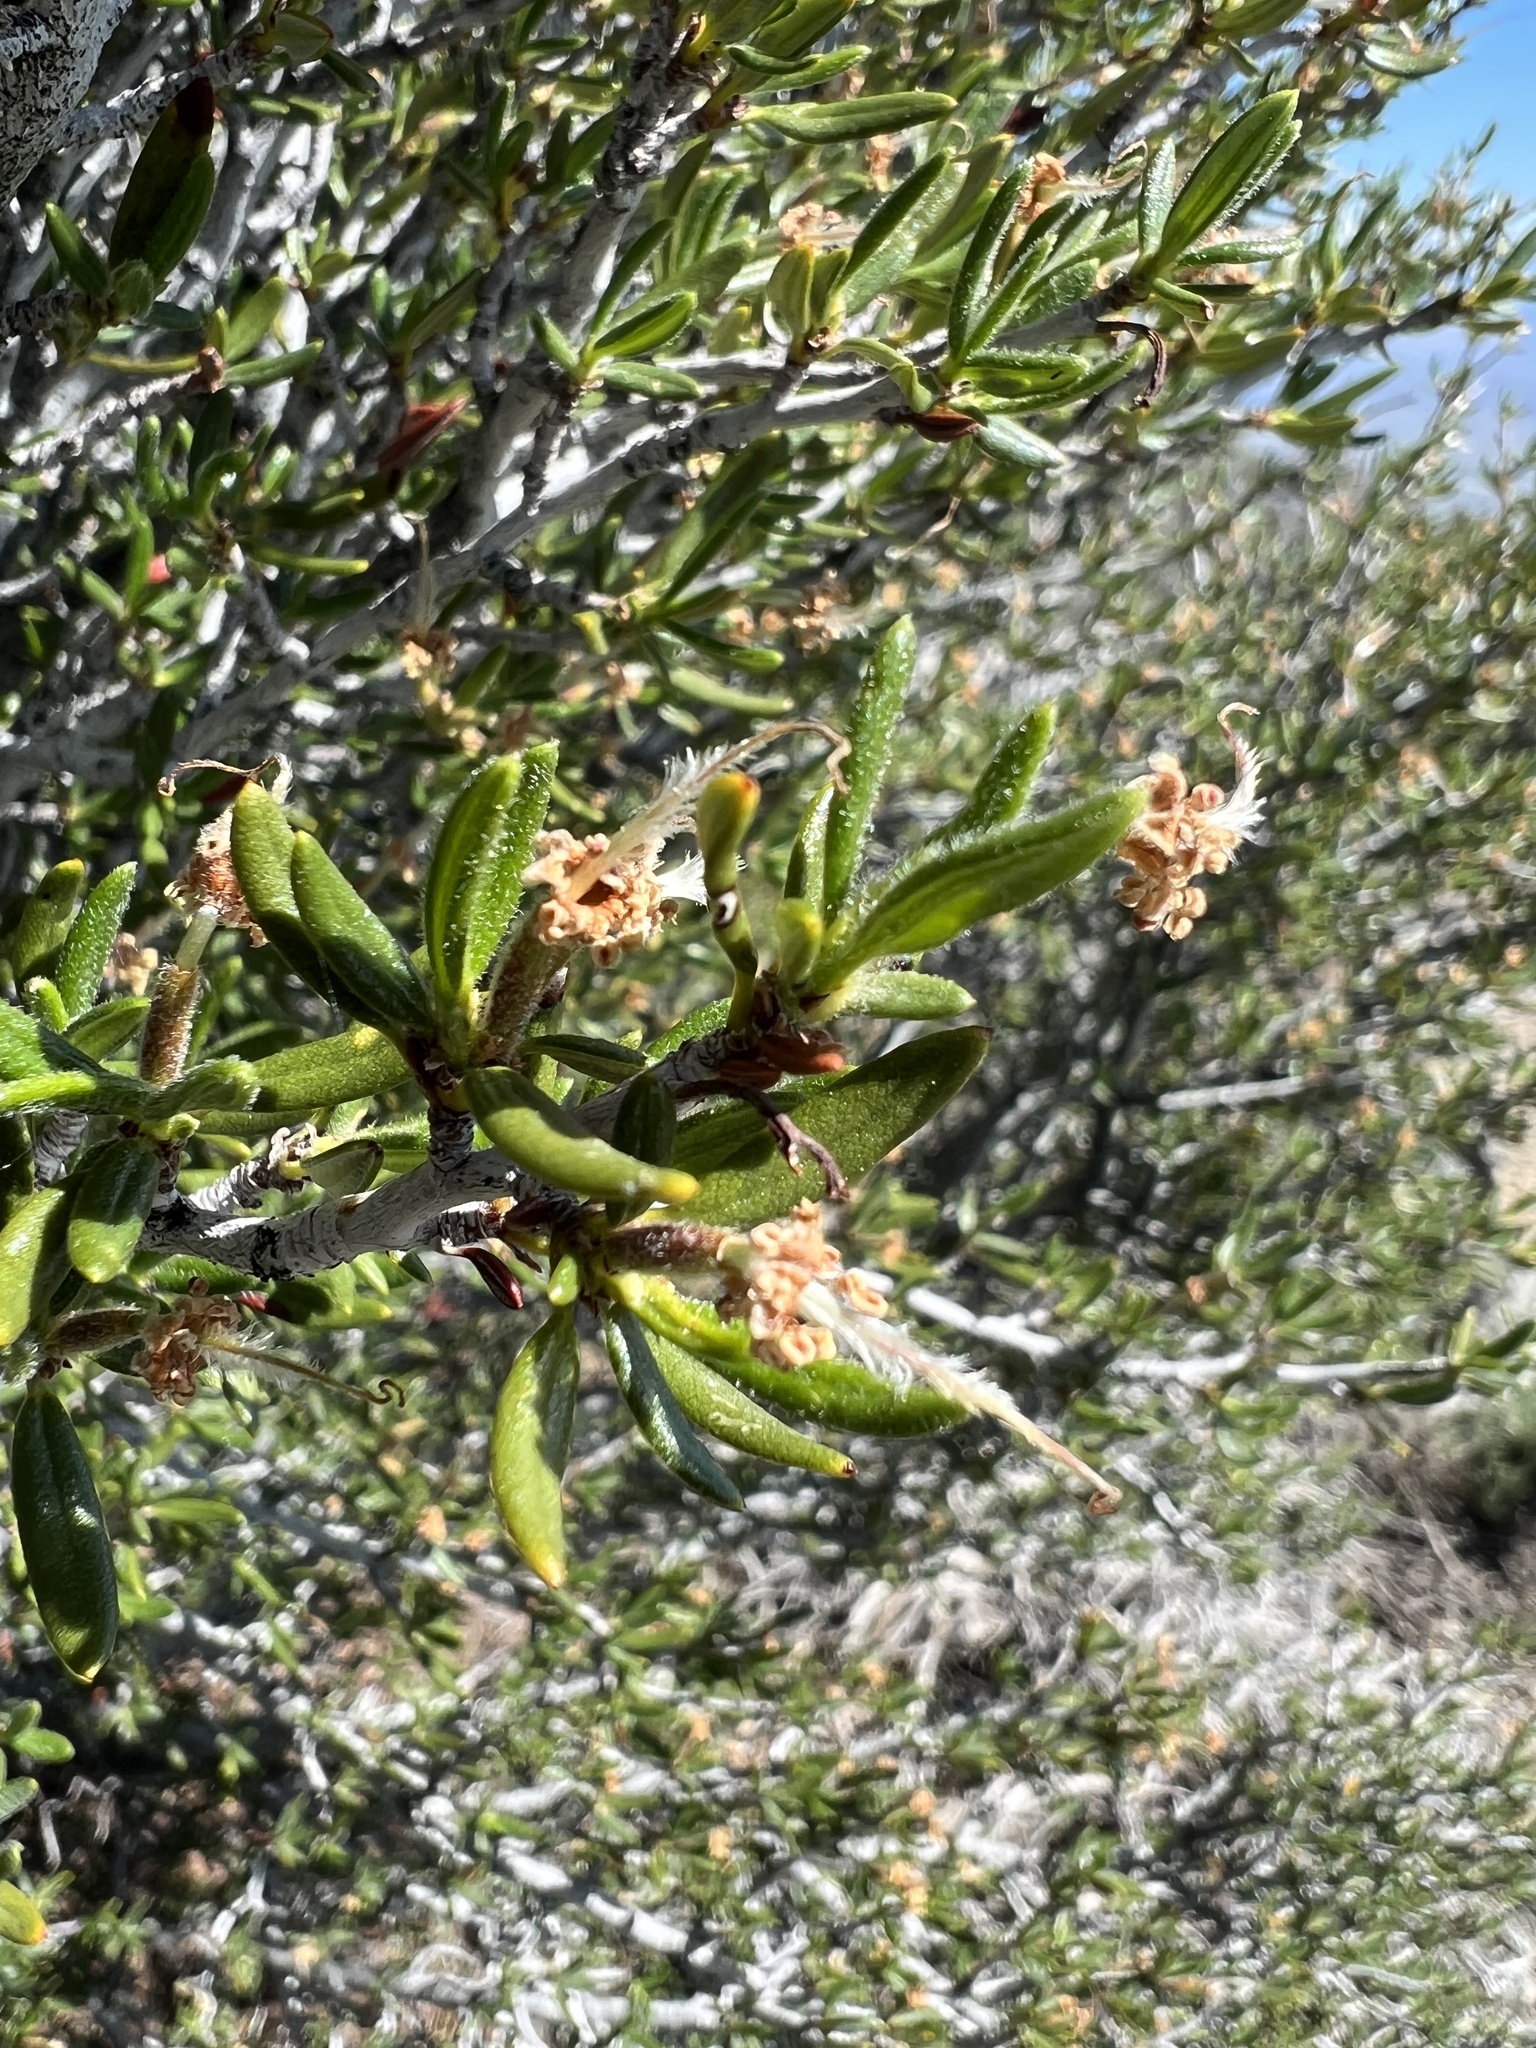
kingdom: Plantae
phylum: Tracheophyta
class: Magnoliopsida
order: Rosales
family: Rosaceae
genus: Cercocarpus
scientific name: Cercocarpus ledifolius
